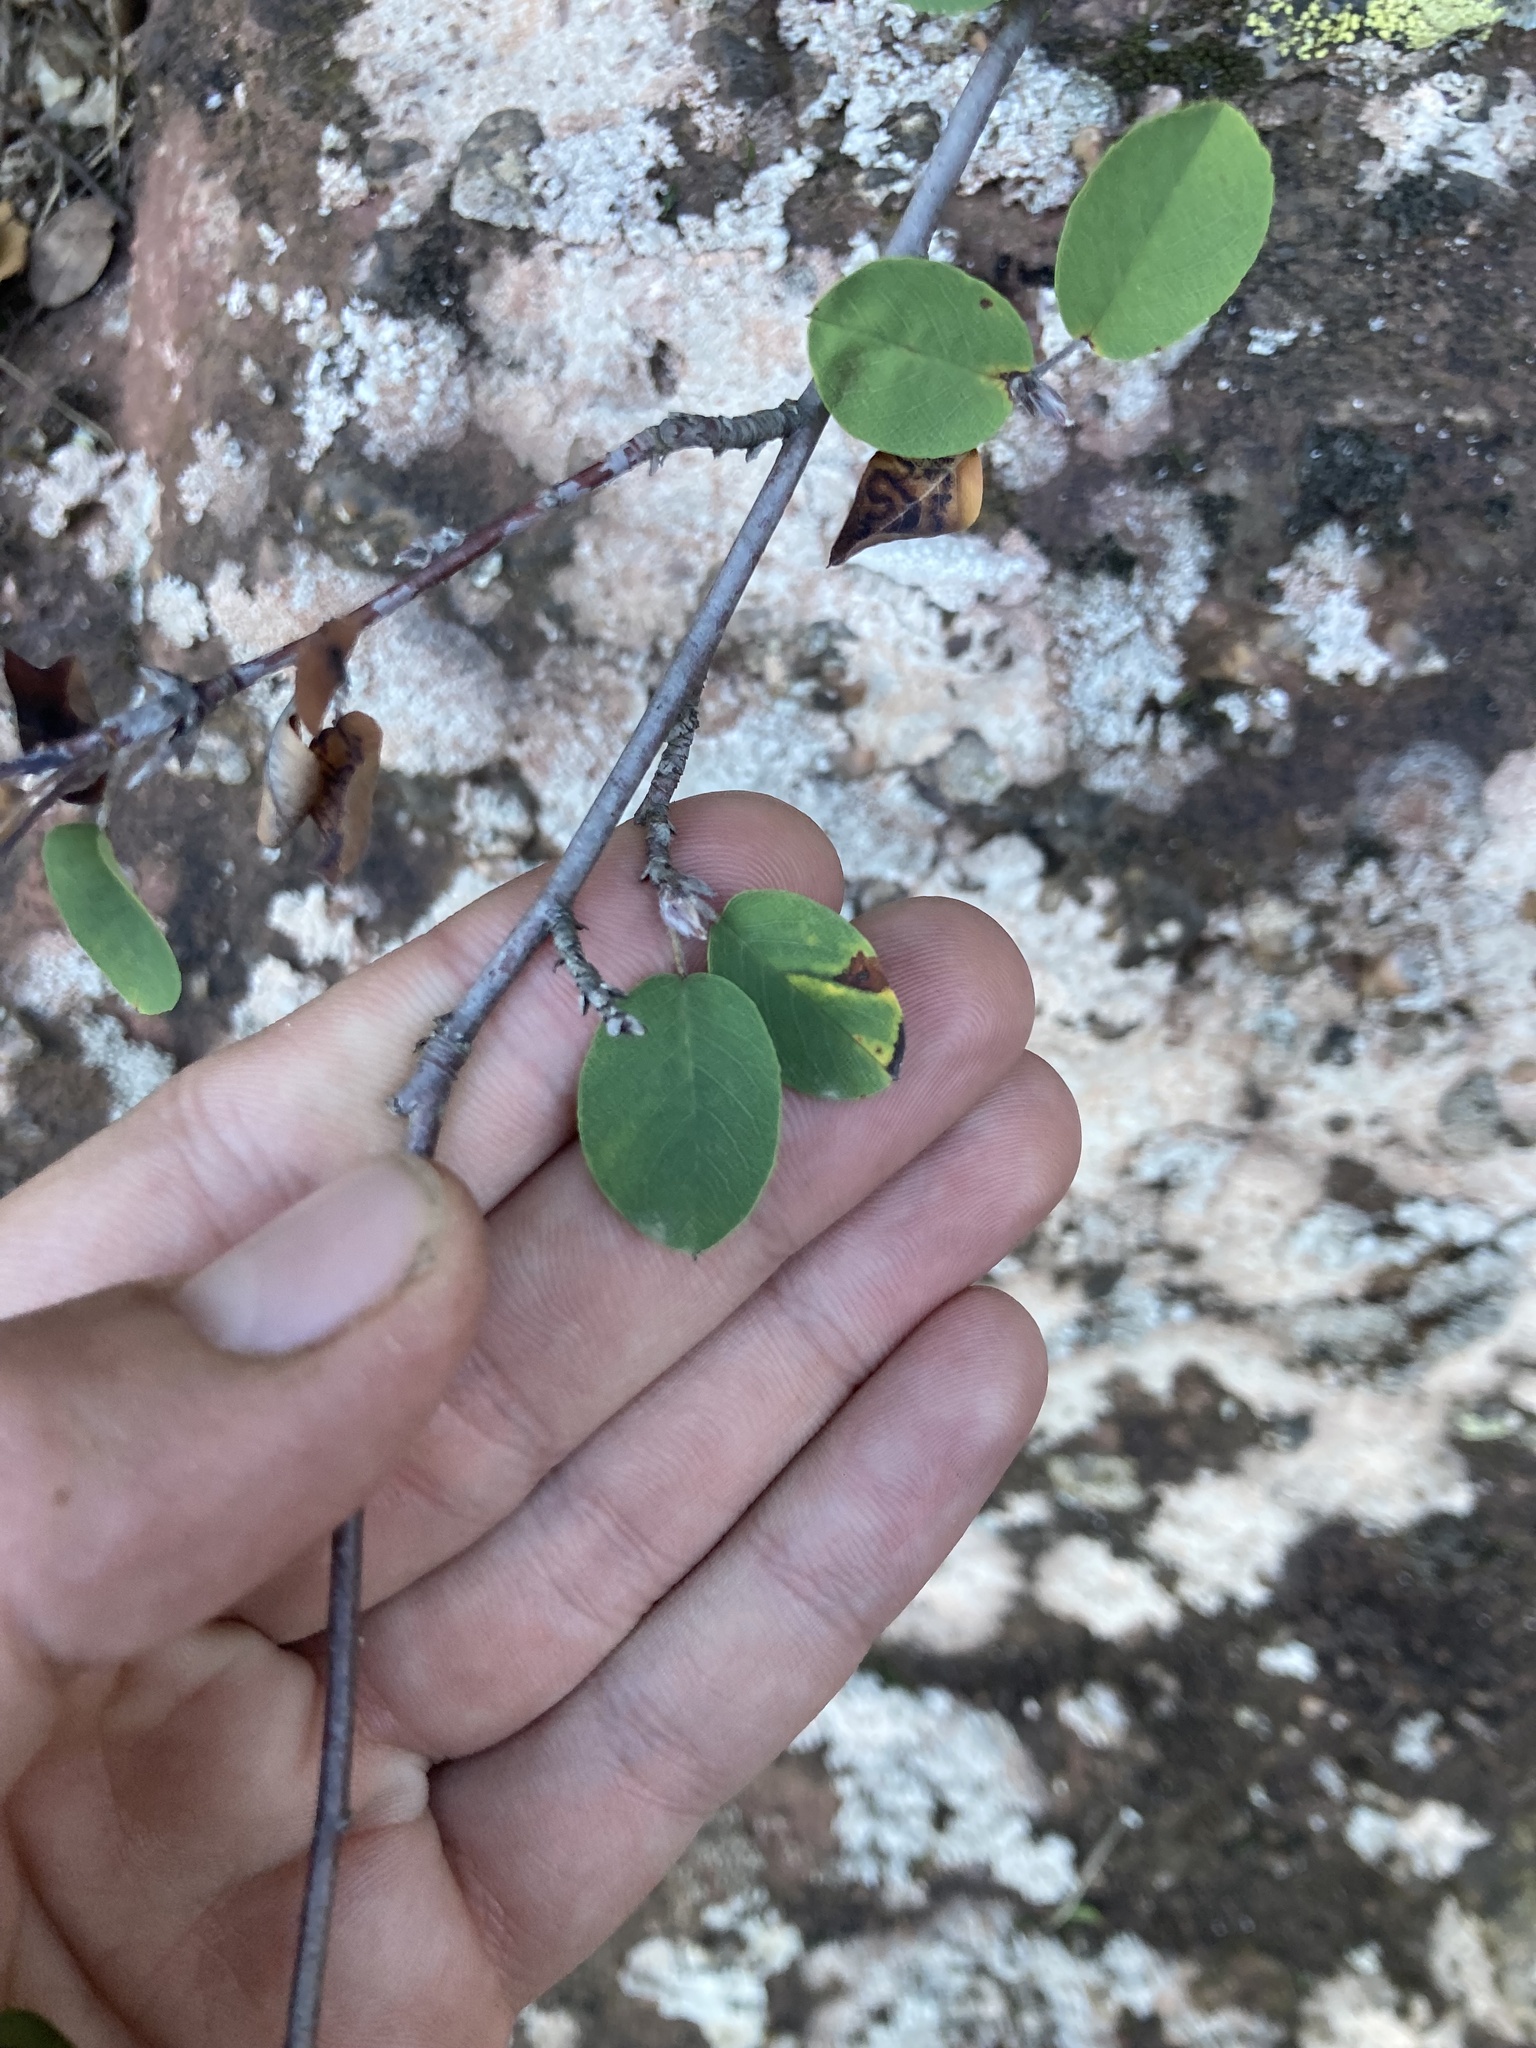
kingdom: Plantae
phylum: Tracheophyta
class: Magnoliopsida
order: Rosales
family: Rosaceae
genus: Amelanchier
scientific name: Amelanchier ovalis
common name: Serviceberry
